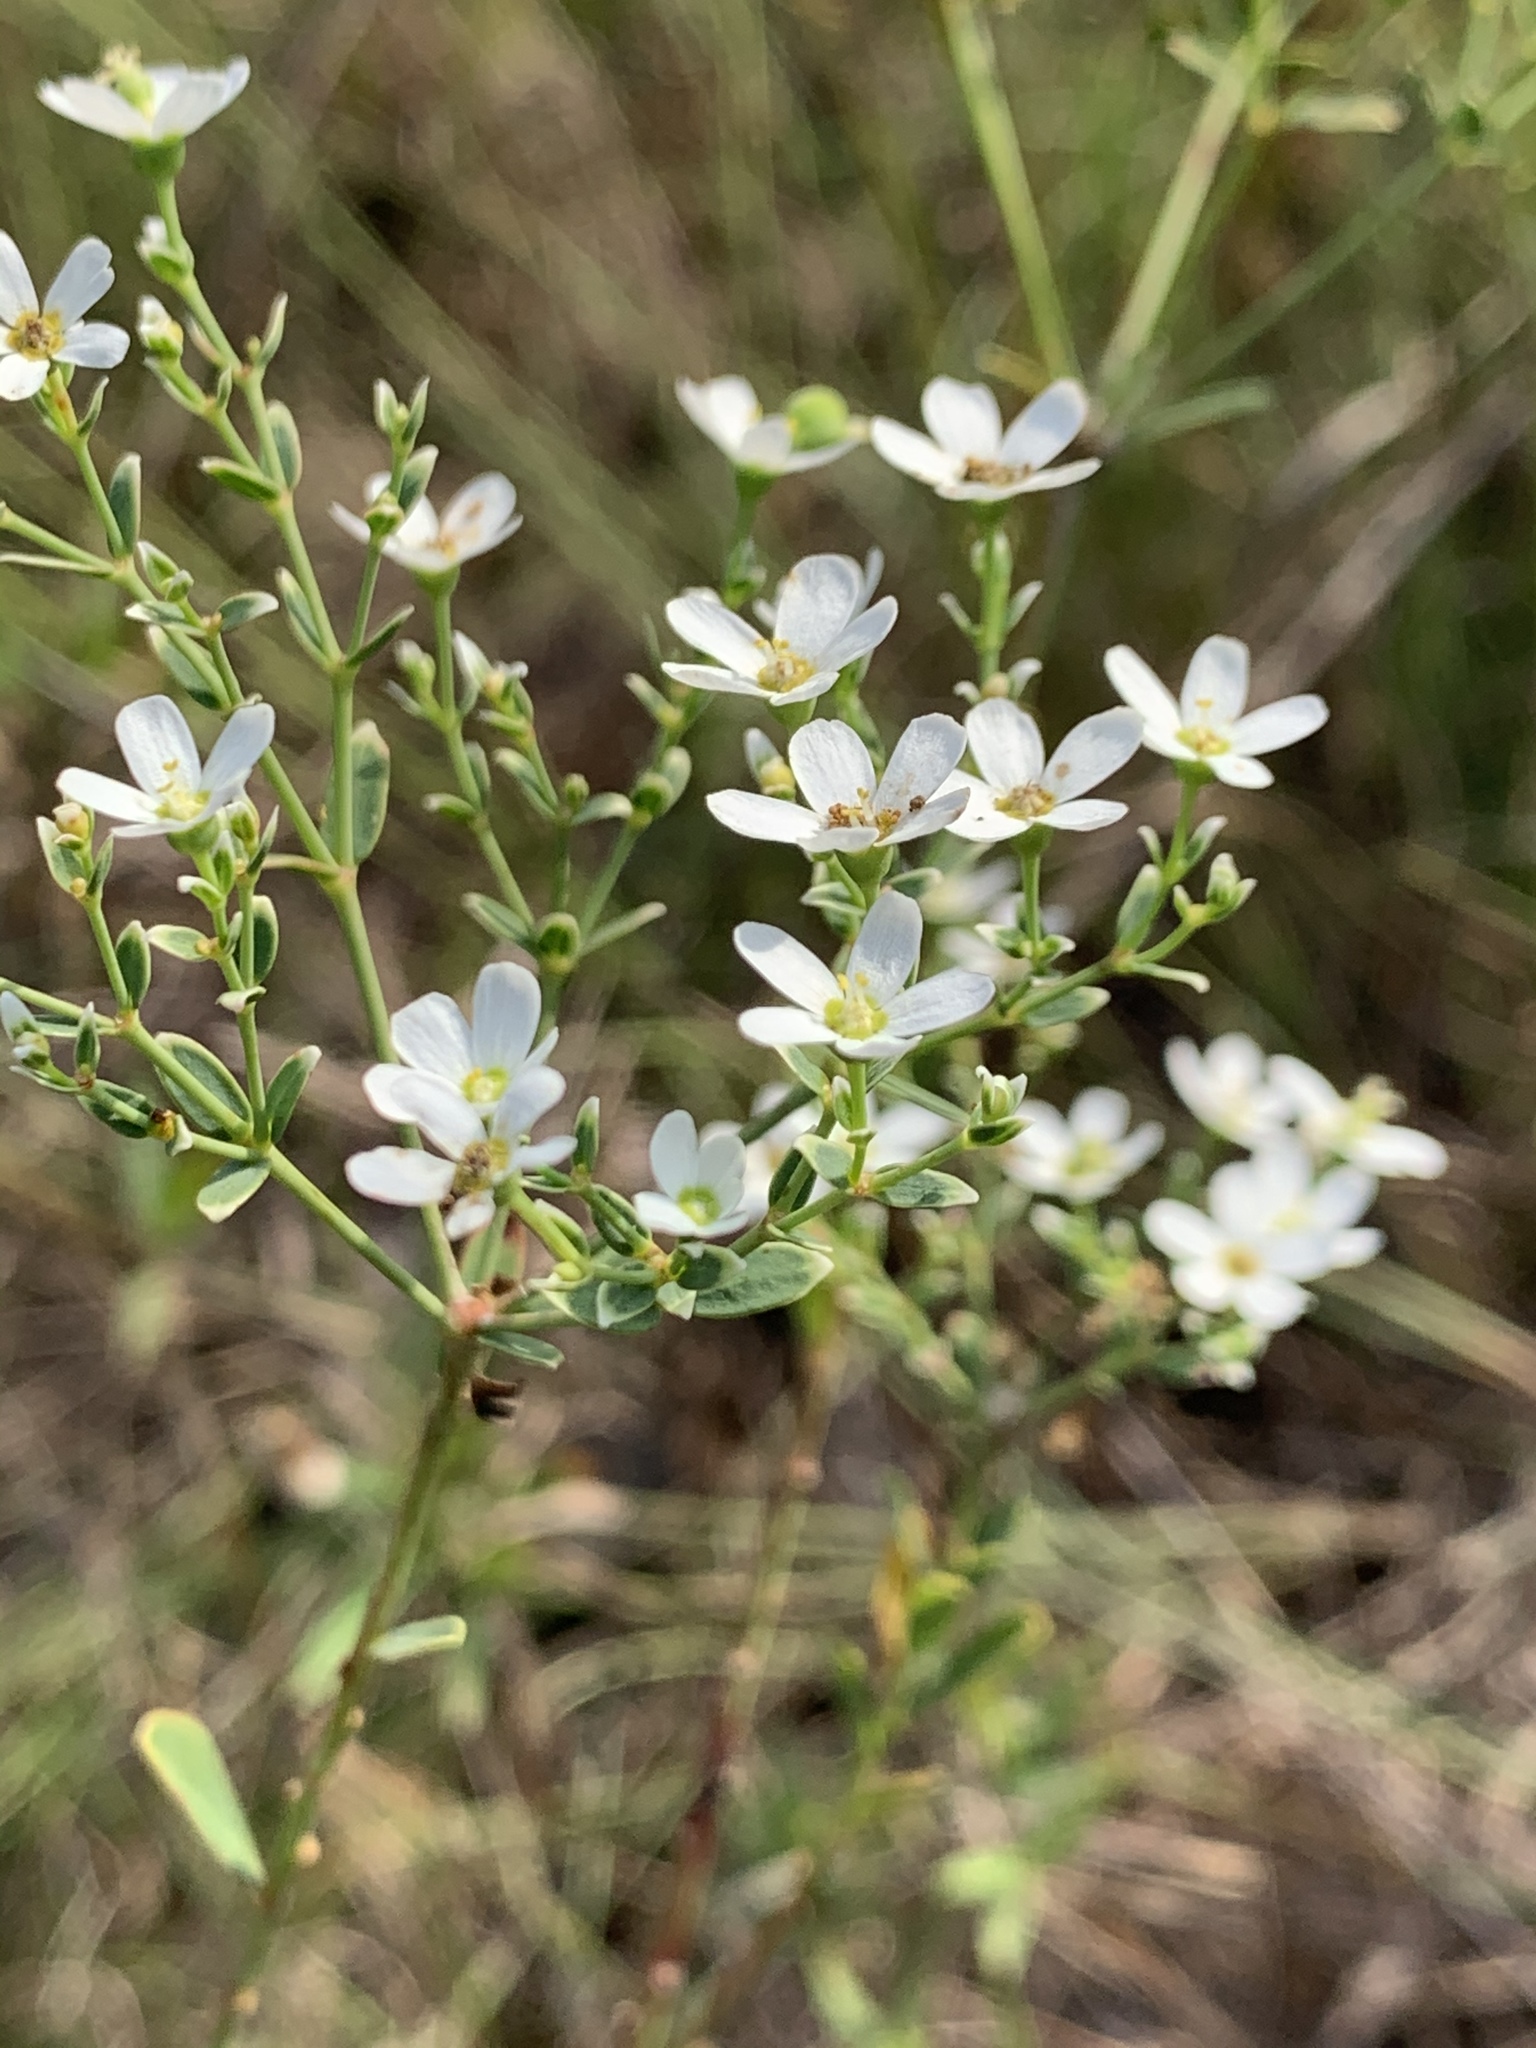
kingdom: Plantae
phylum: Tracheophyta
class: Magnoliopsida
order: Malpighiales
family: Euphorbiaceae
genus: Euphorbia
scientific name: Euphorbia corollata
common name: Flowering spurge
